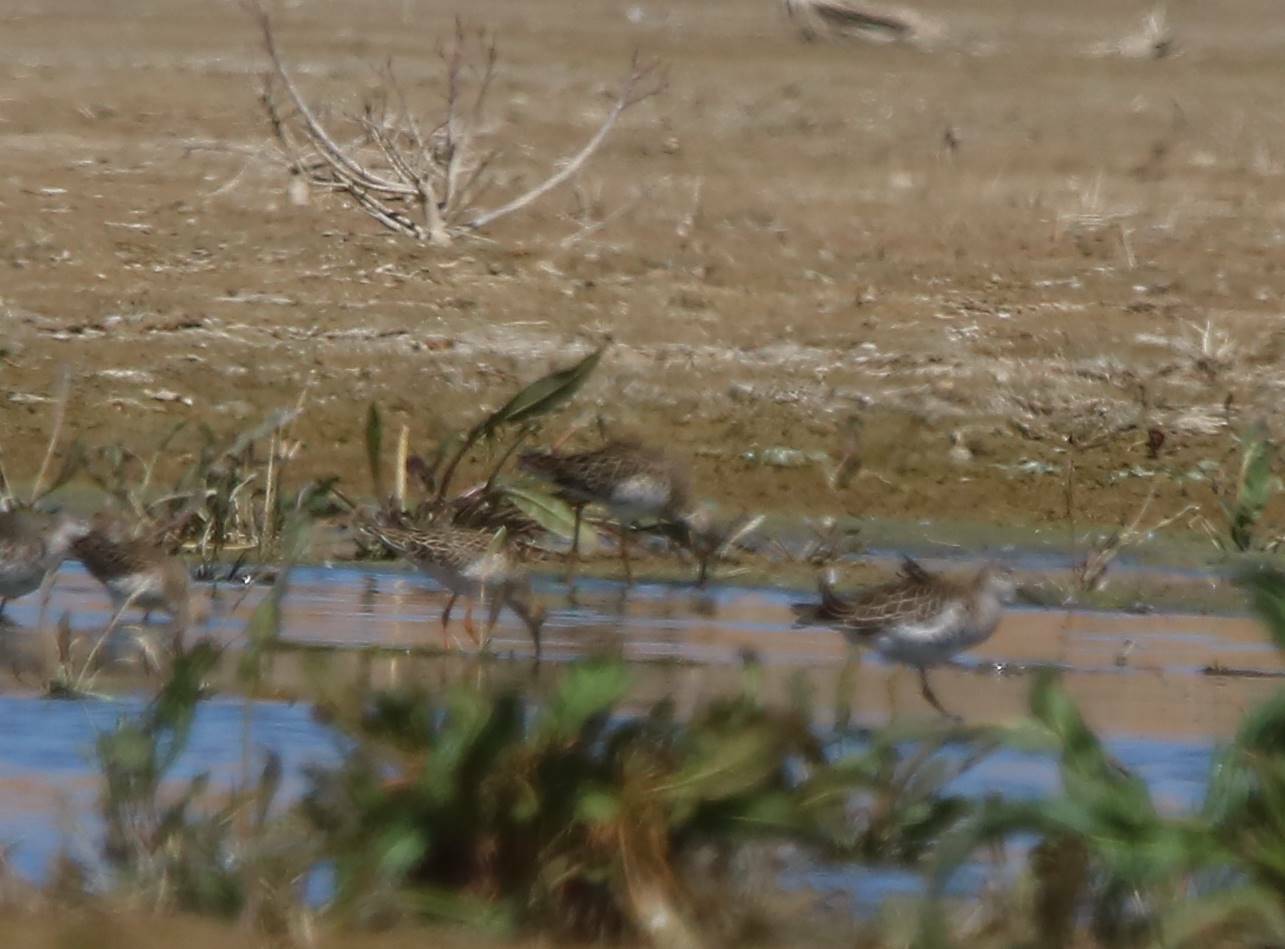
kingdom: Animalia
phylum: Chordata
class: Aves
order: Charadriiformes
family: Scolopacidae
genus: Calidris
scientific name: Calidris pugnax
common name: Ruff
